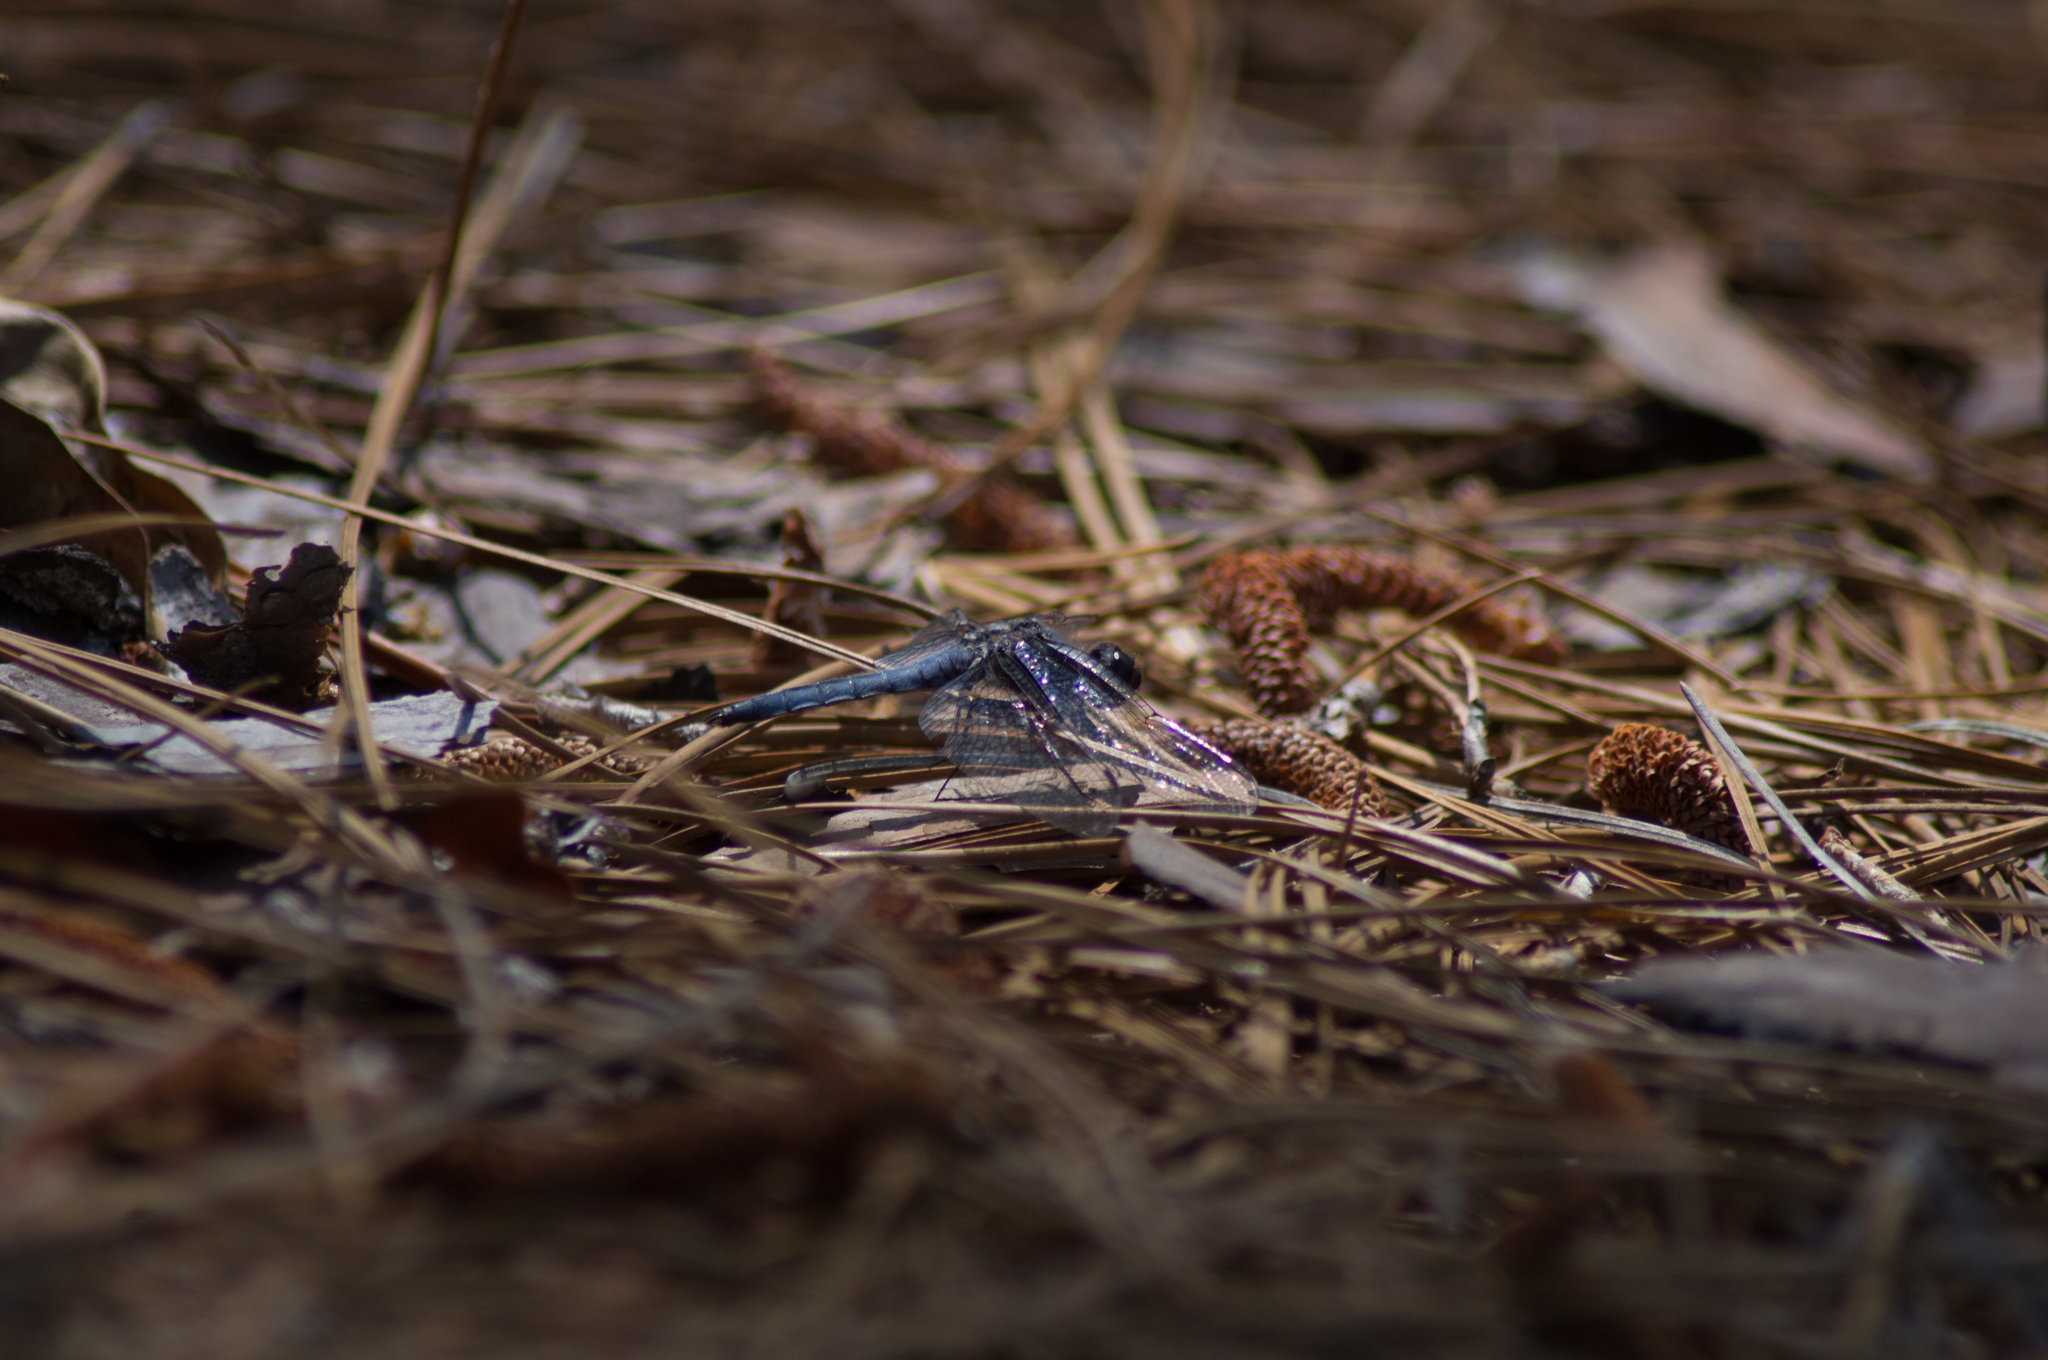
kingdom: Animalia
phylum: Arthropoda
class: Insecta
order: Odonata
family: Libellulidae
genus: Ladona
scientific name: Ladona deplanata
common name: Blue corporal
